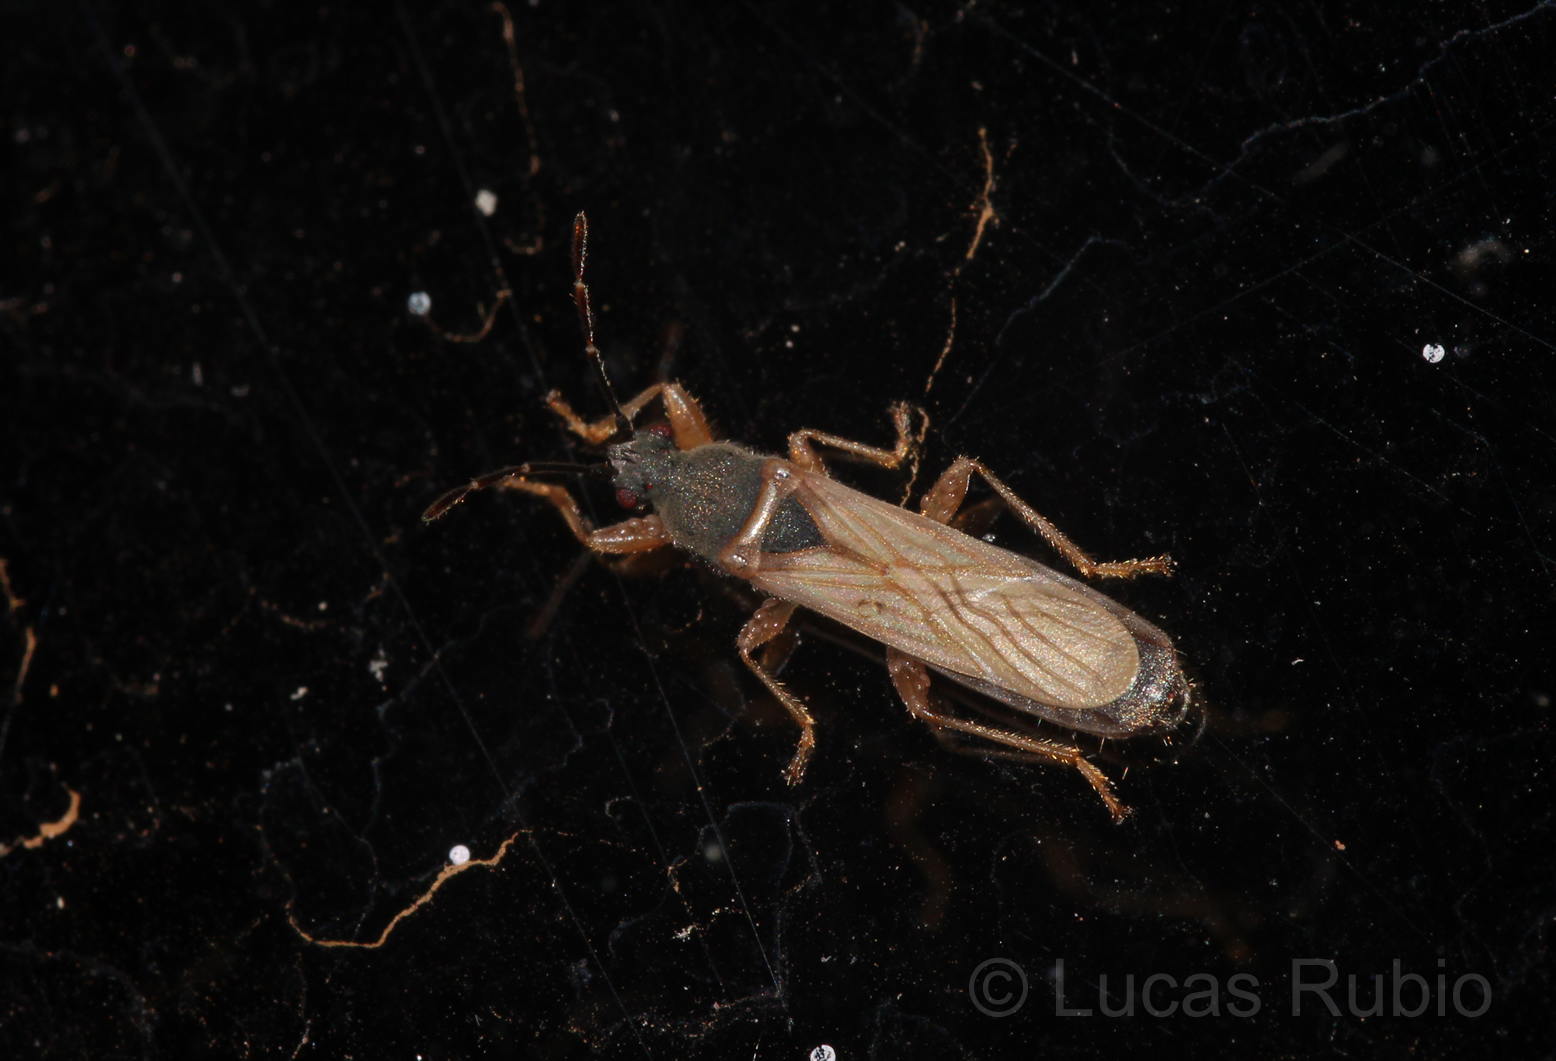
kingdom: Animalia
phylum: Arthropoda
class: Insecta
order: Hemiptera
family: Blissidae
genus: Ischnodemus
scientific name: Ischnodemus staliellus
